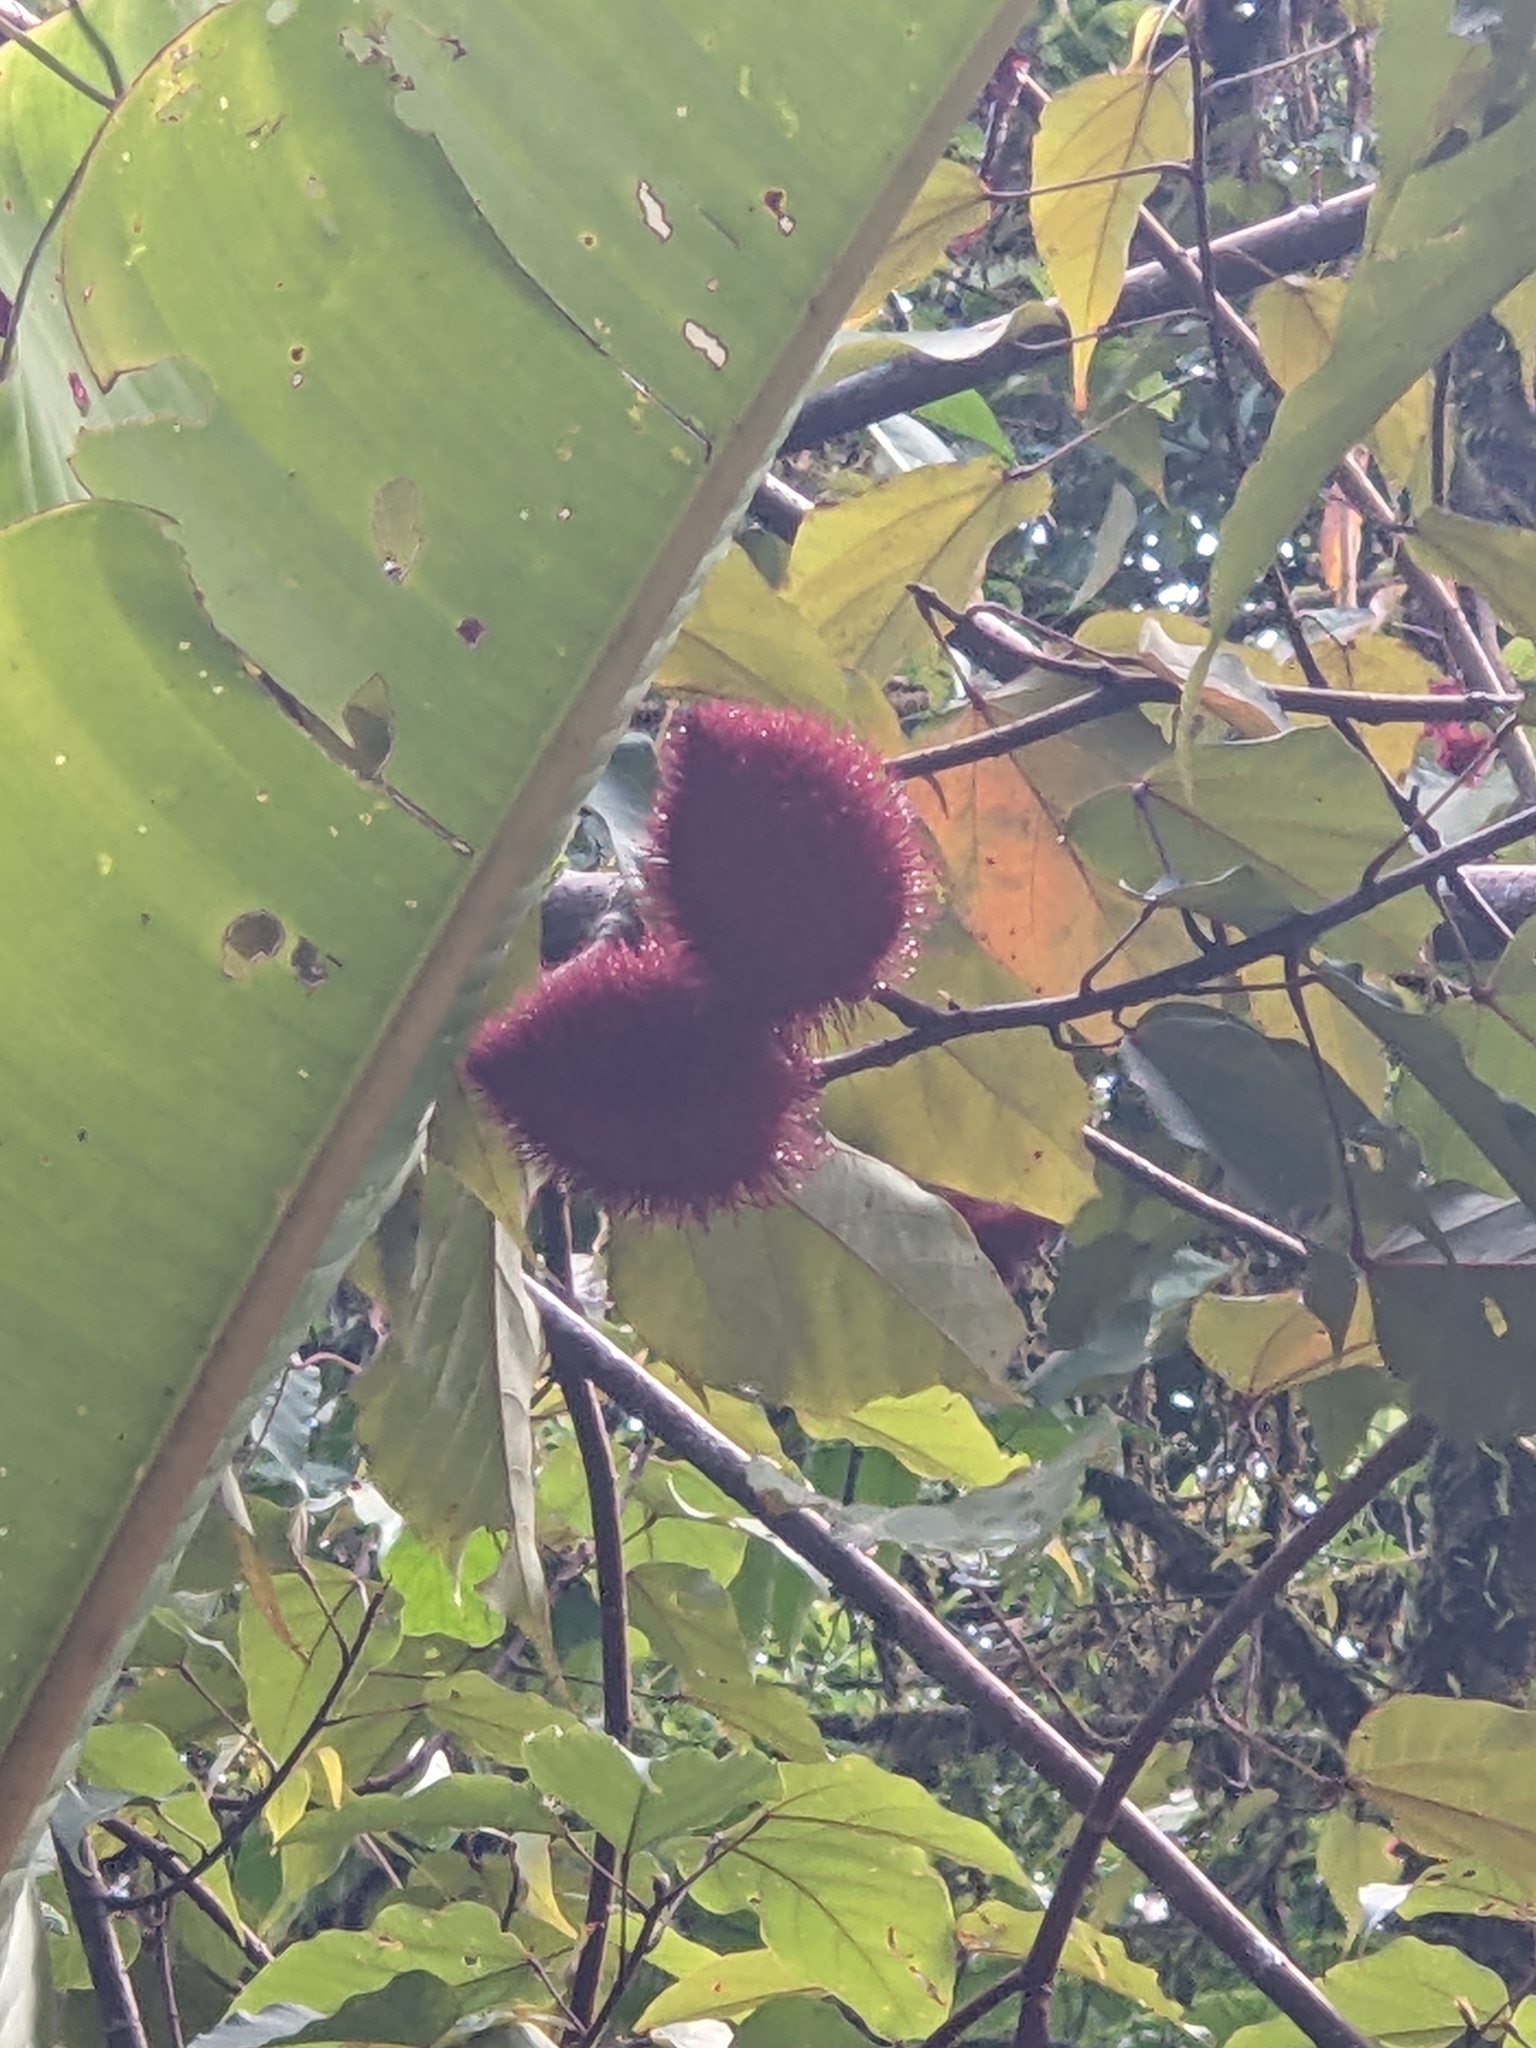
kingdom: Plantae
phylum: Tracheophyta
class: Magnoliopsida
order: Malvales
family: Bixaceae
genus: Bixa
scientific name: Bixa orellana
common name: Lipsticktree
